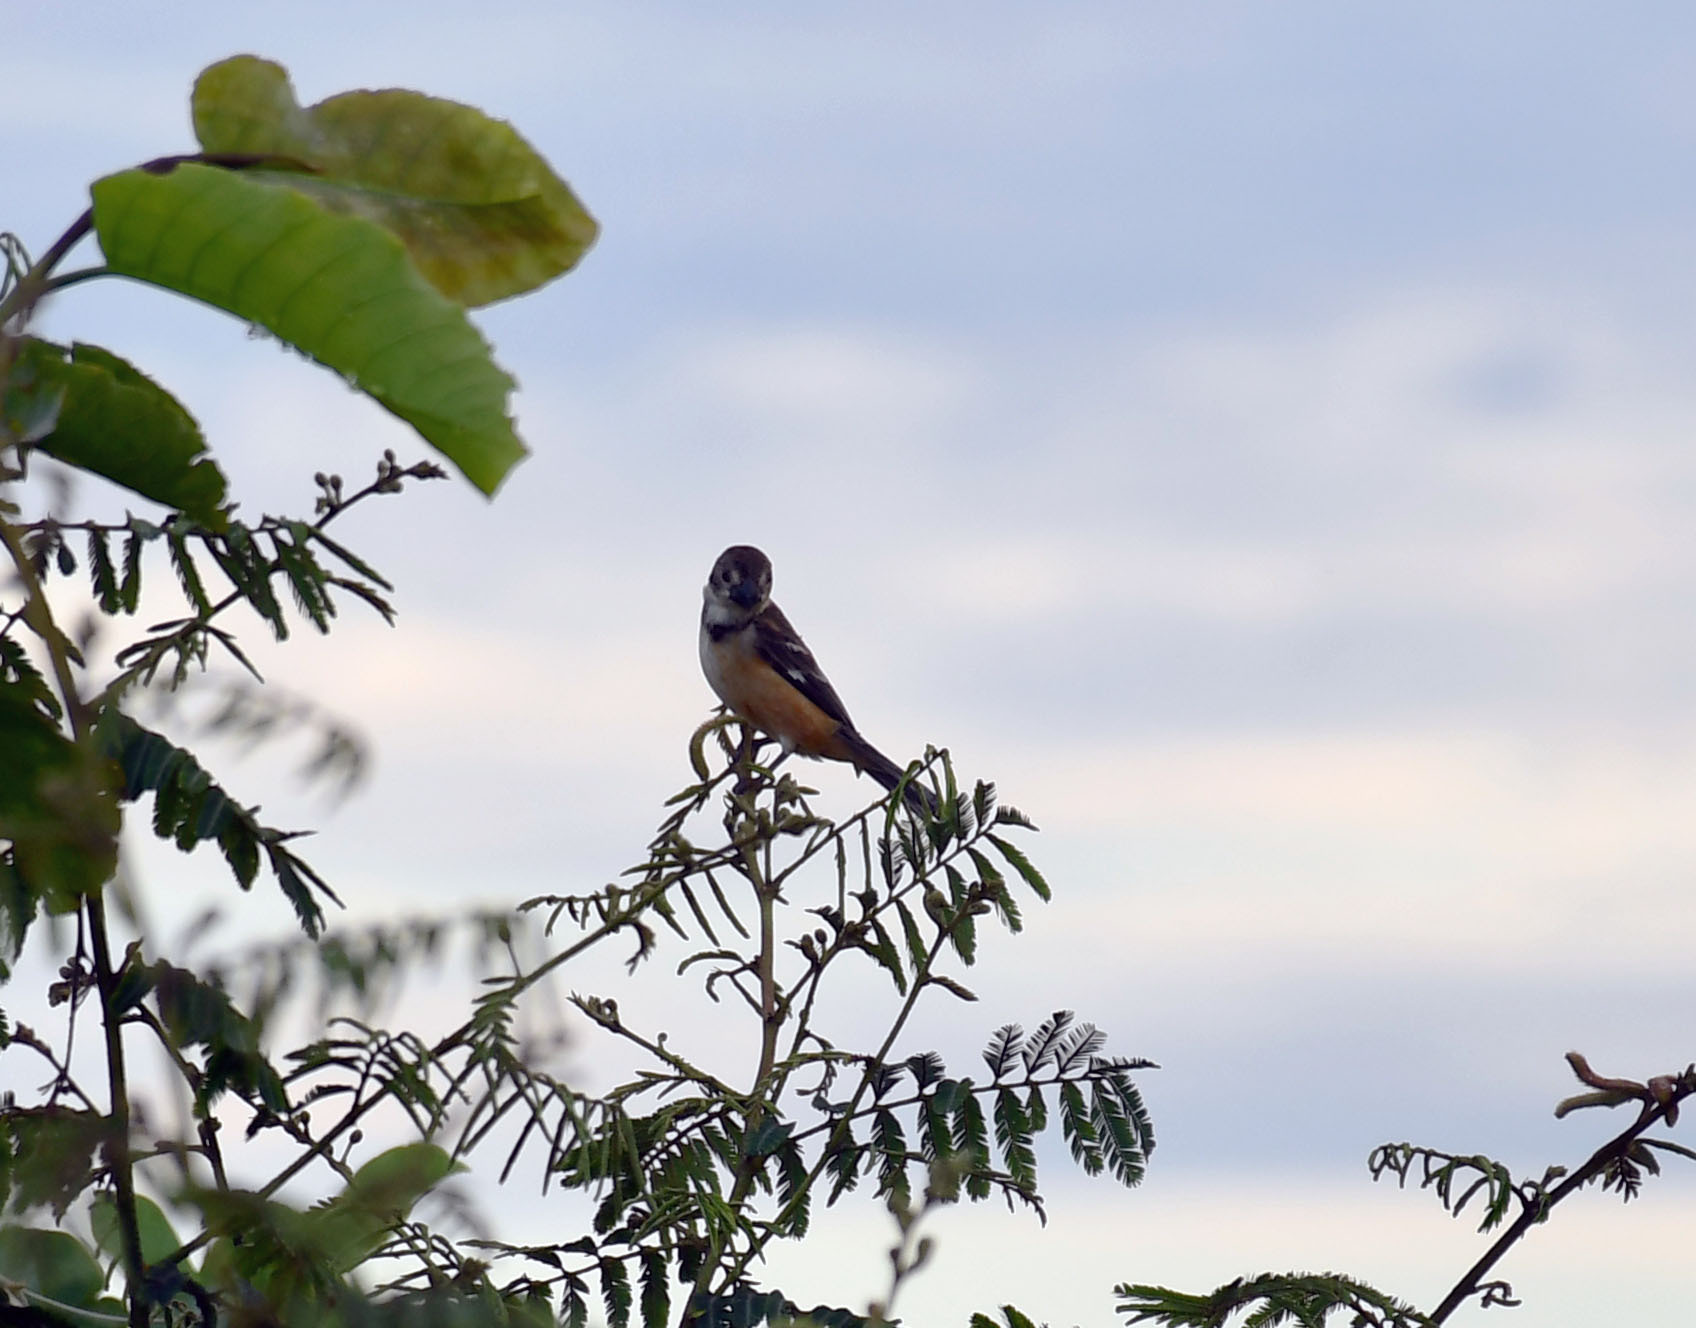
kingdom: Animalia
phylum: Chordata
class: Aves
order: Passeriformes
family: Thraupidae
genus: Sporophila
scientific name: Sporophila collaris
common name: Rusty-collared seedeater
